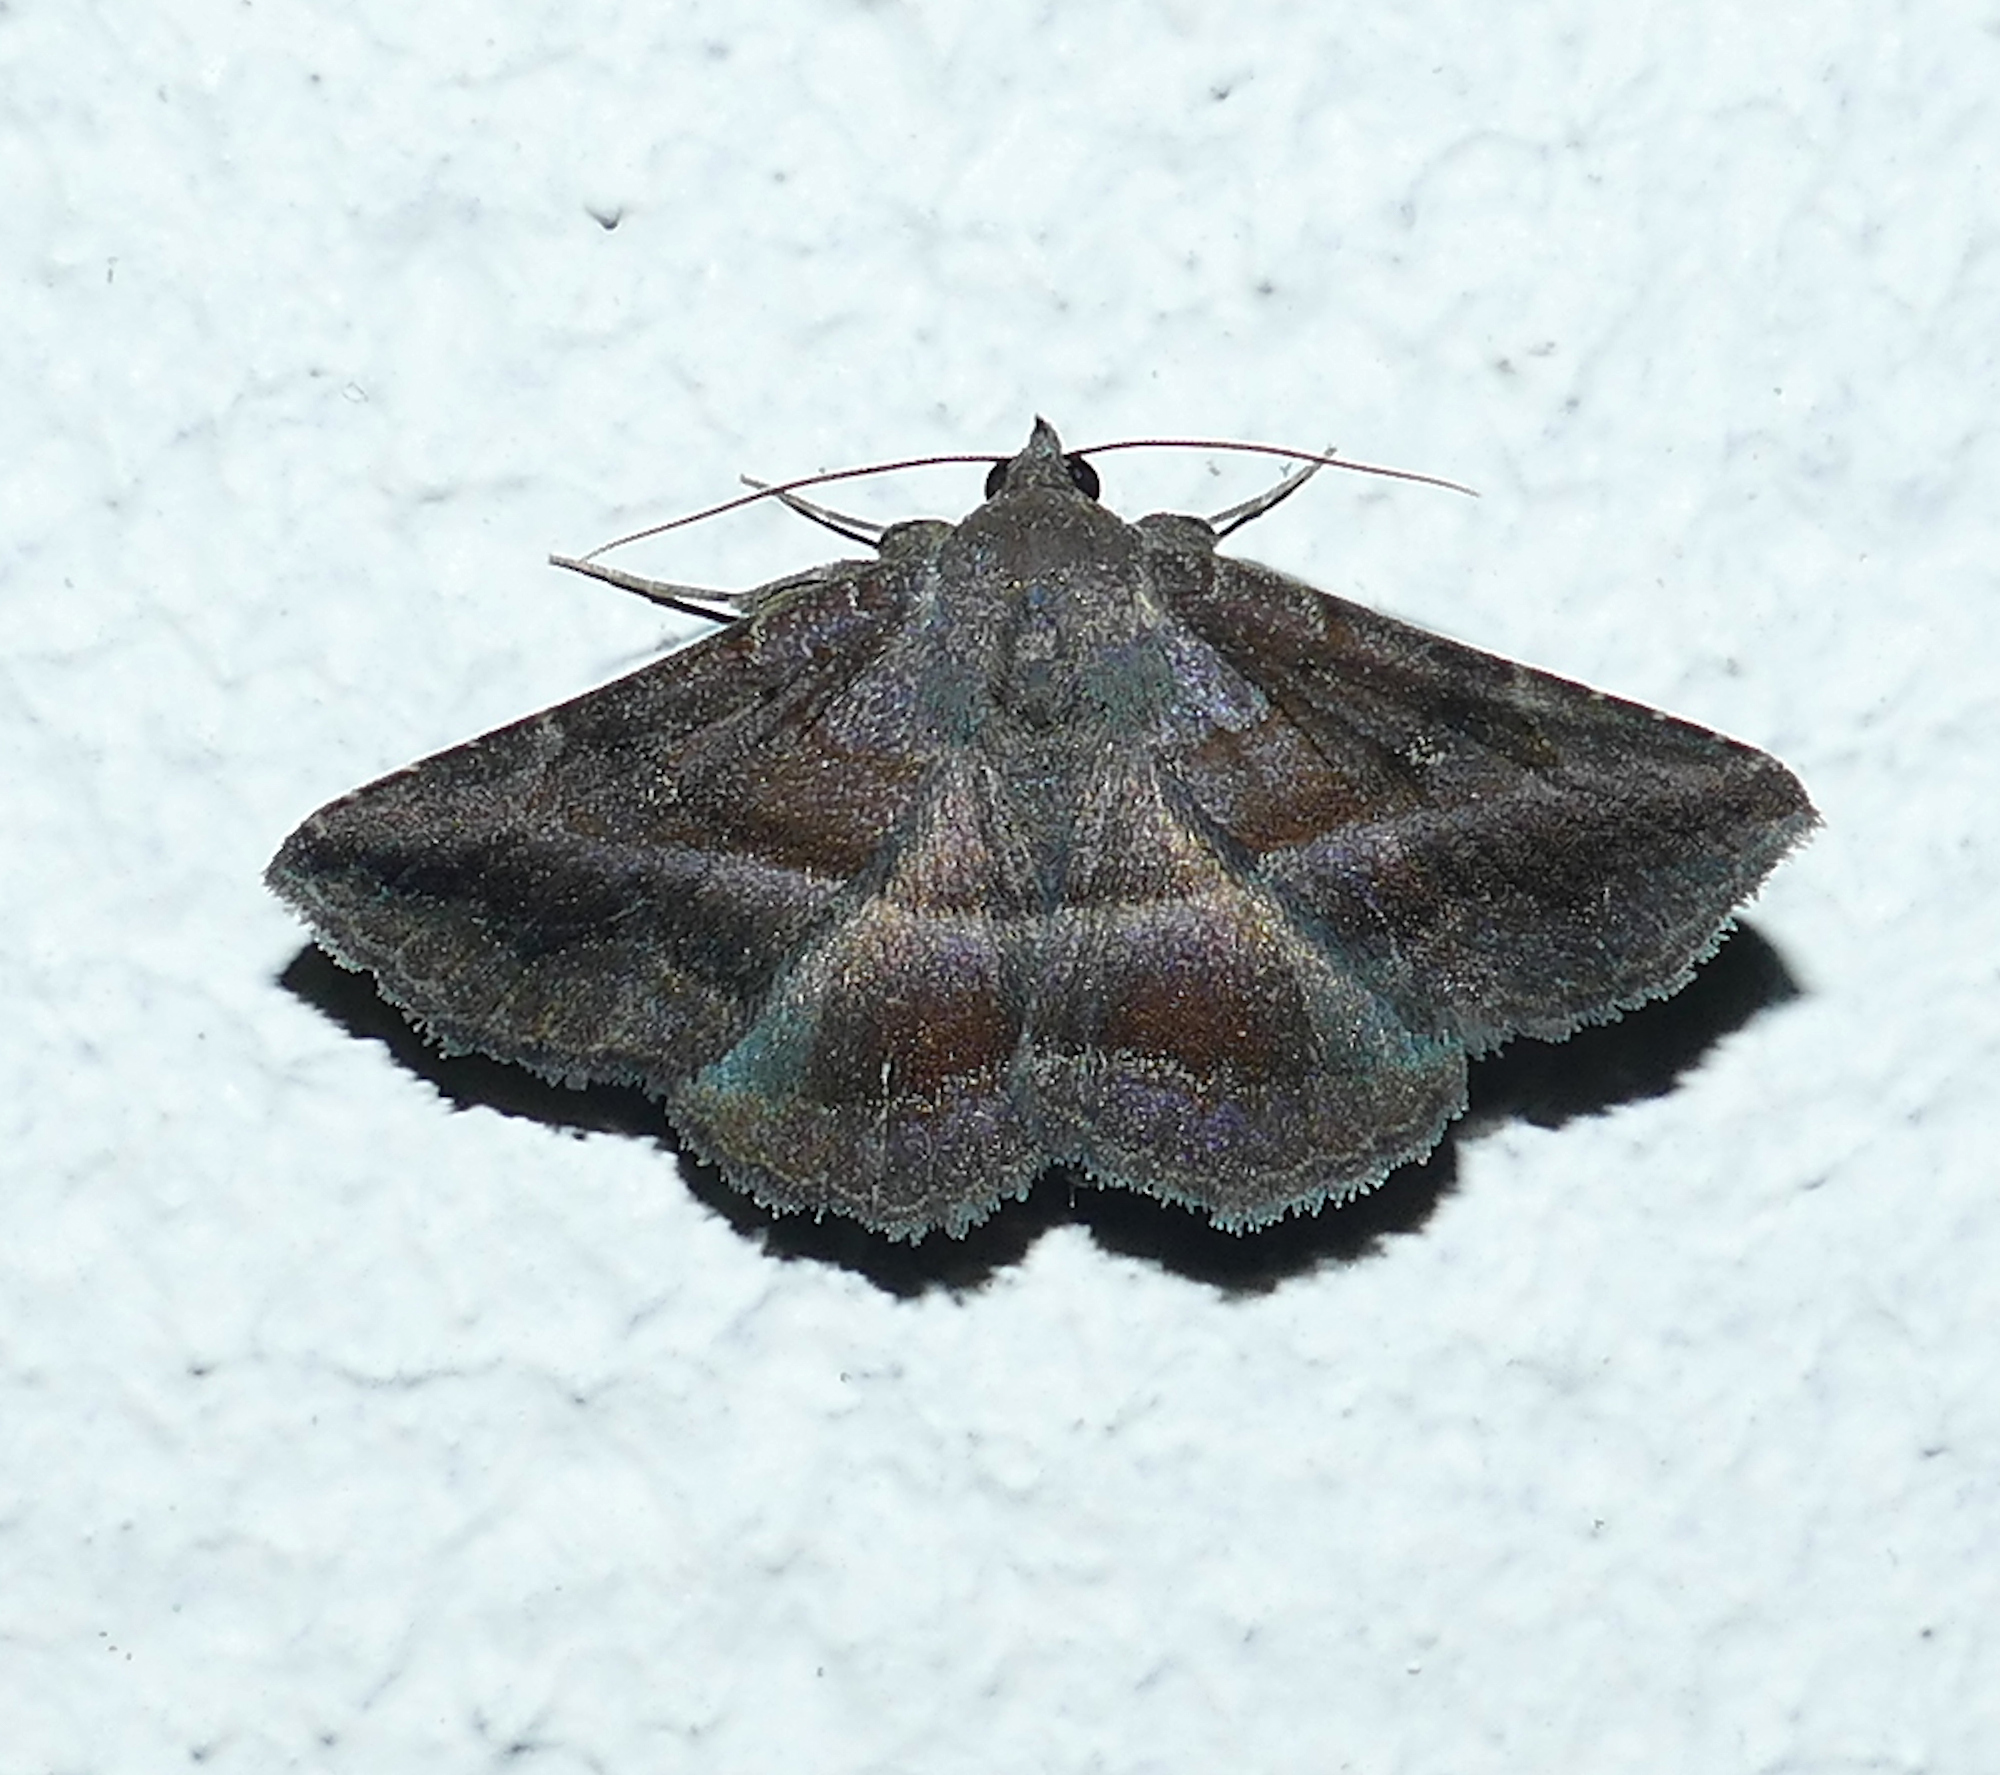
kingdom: Animalia
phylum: Arthropoda
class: Insecta
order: Lepidoptera
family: Erebidae
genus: Lesmone
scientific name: Lesmone detrahens
